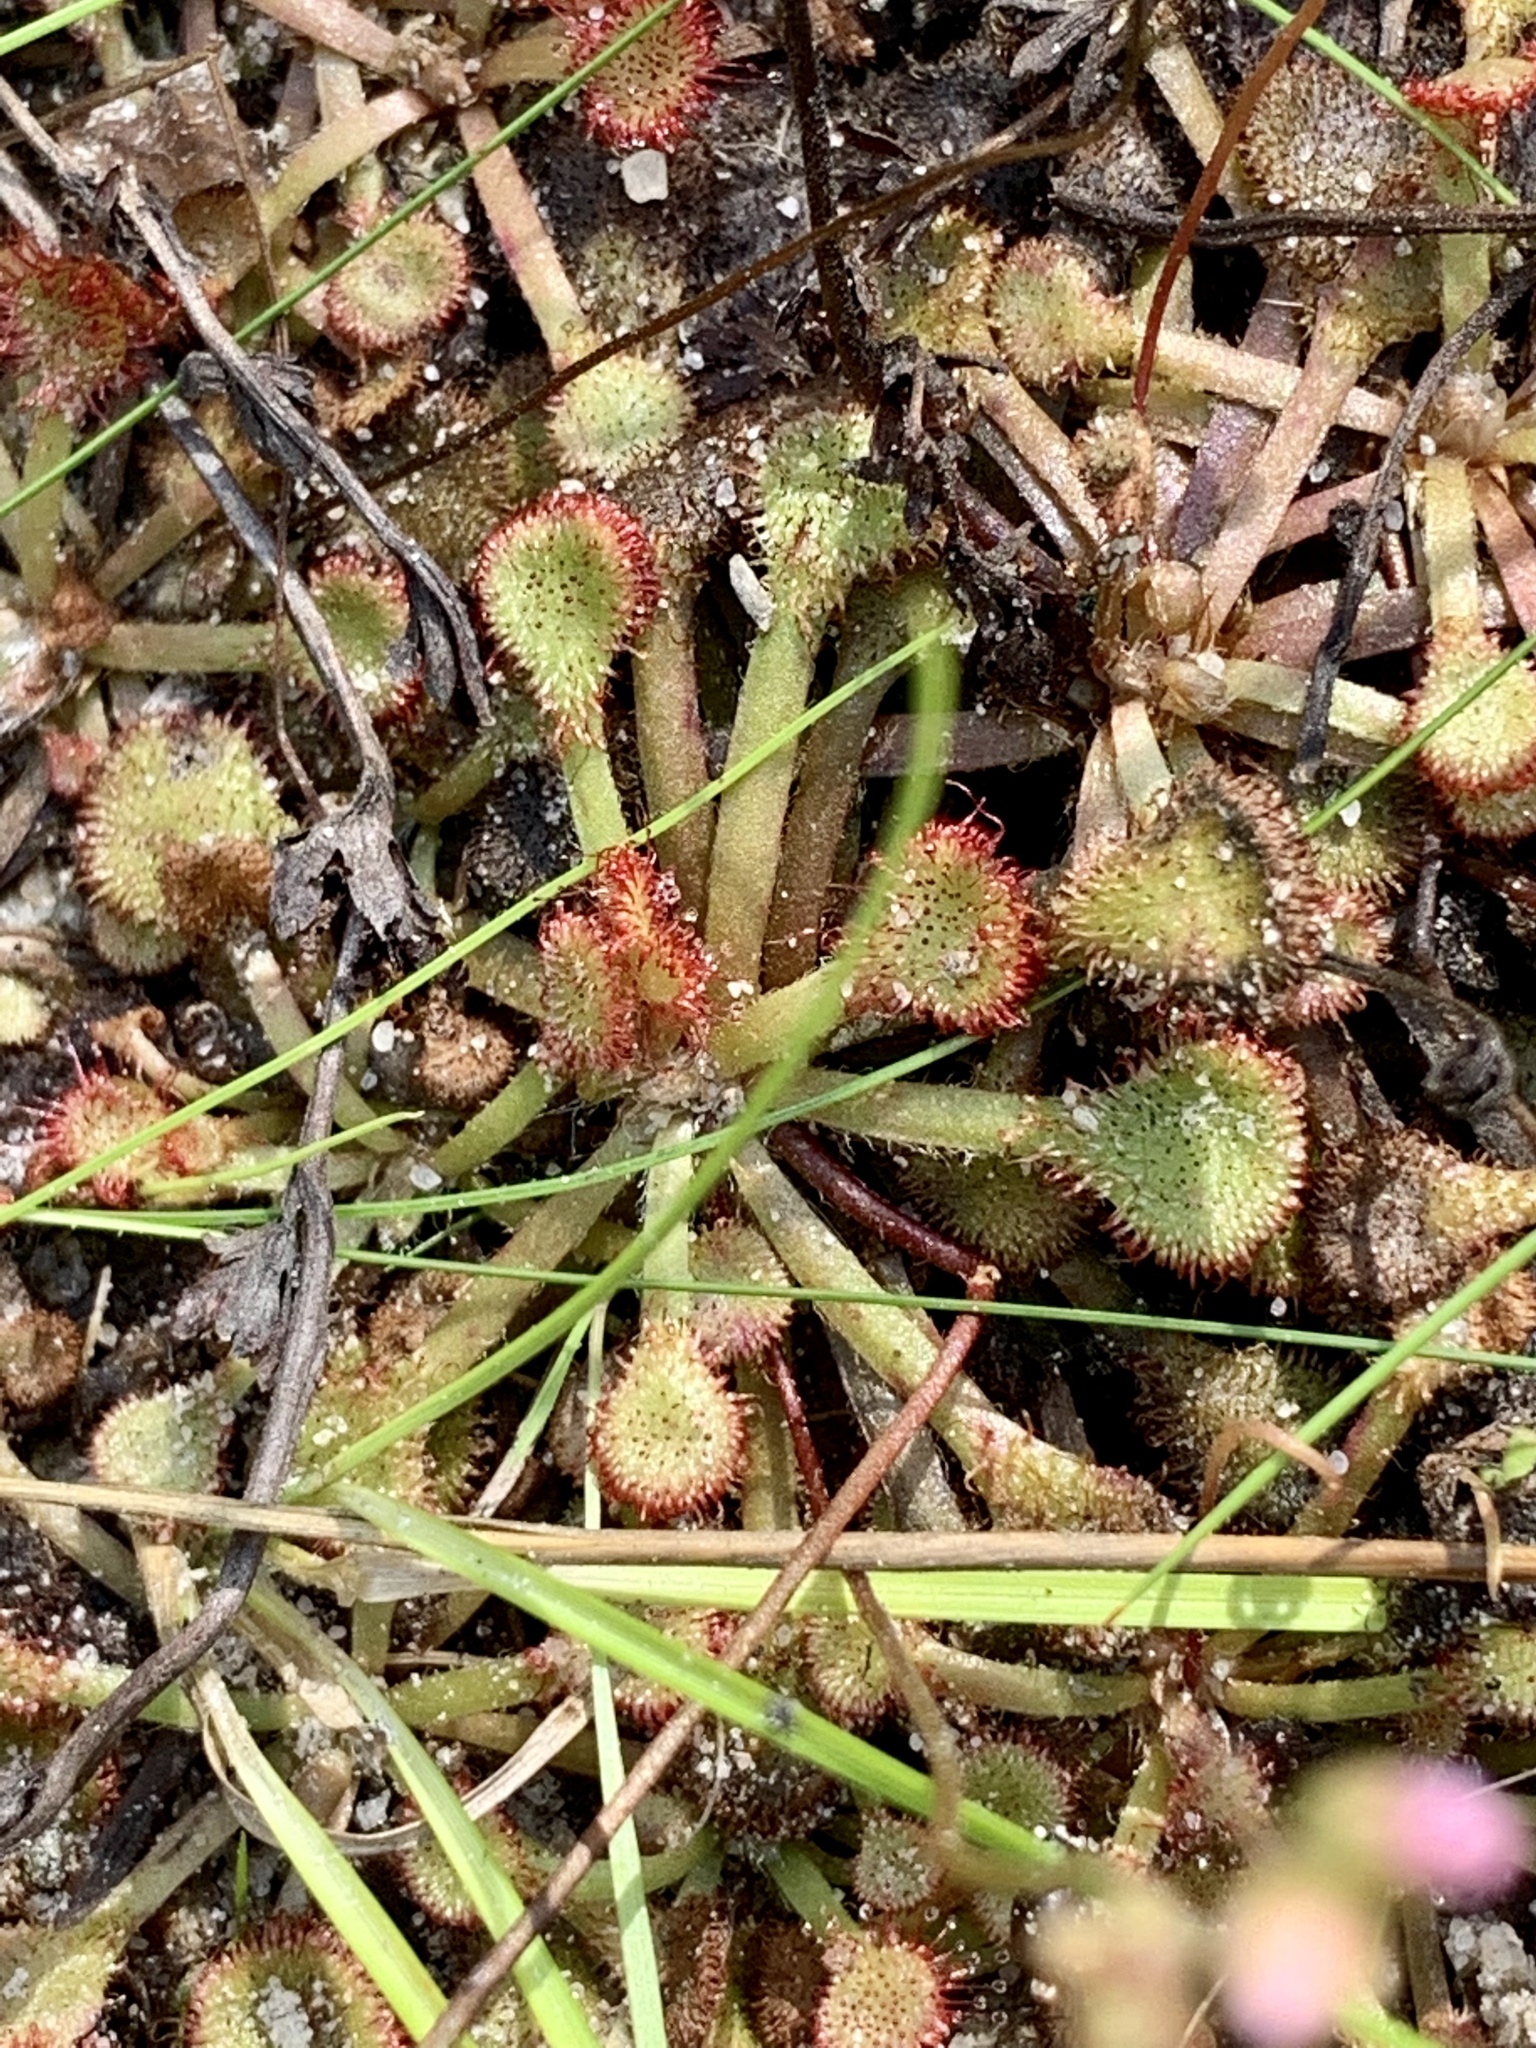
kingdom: Plantae
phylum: Tracheophyta
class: Magnoliopsida
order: Caryophyllales
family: Droseraceae
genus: Drosera
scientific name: Drosera capillaris
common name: Pink sundew
